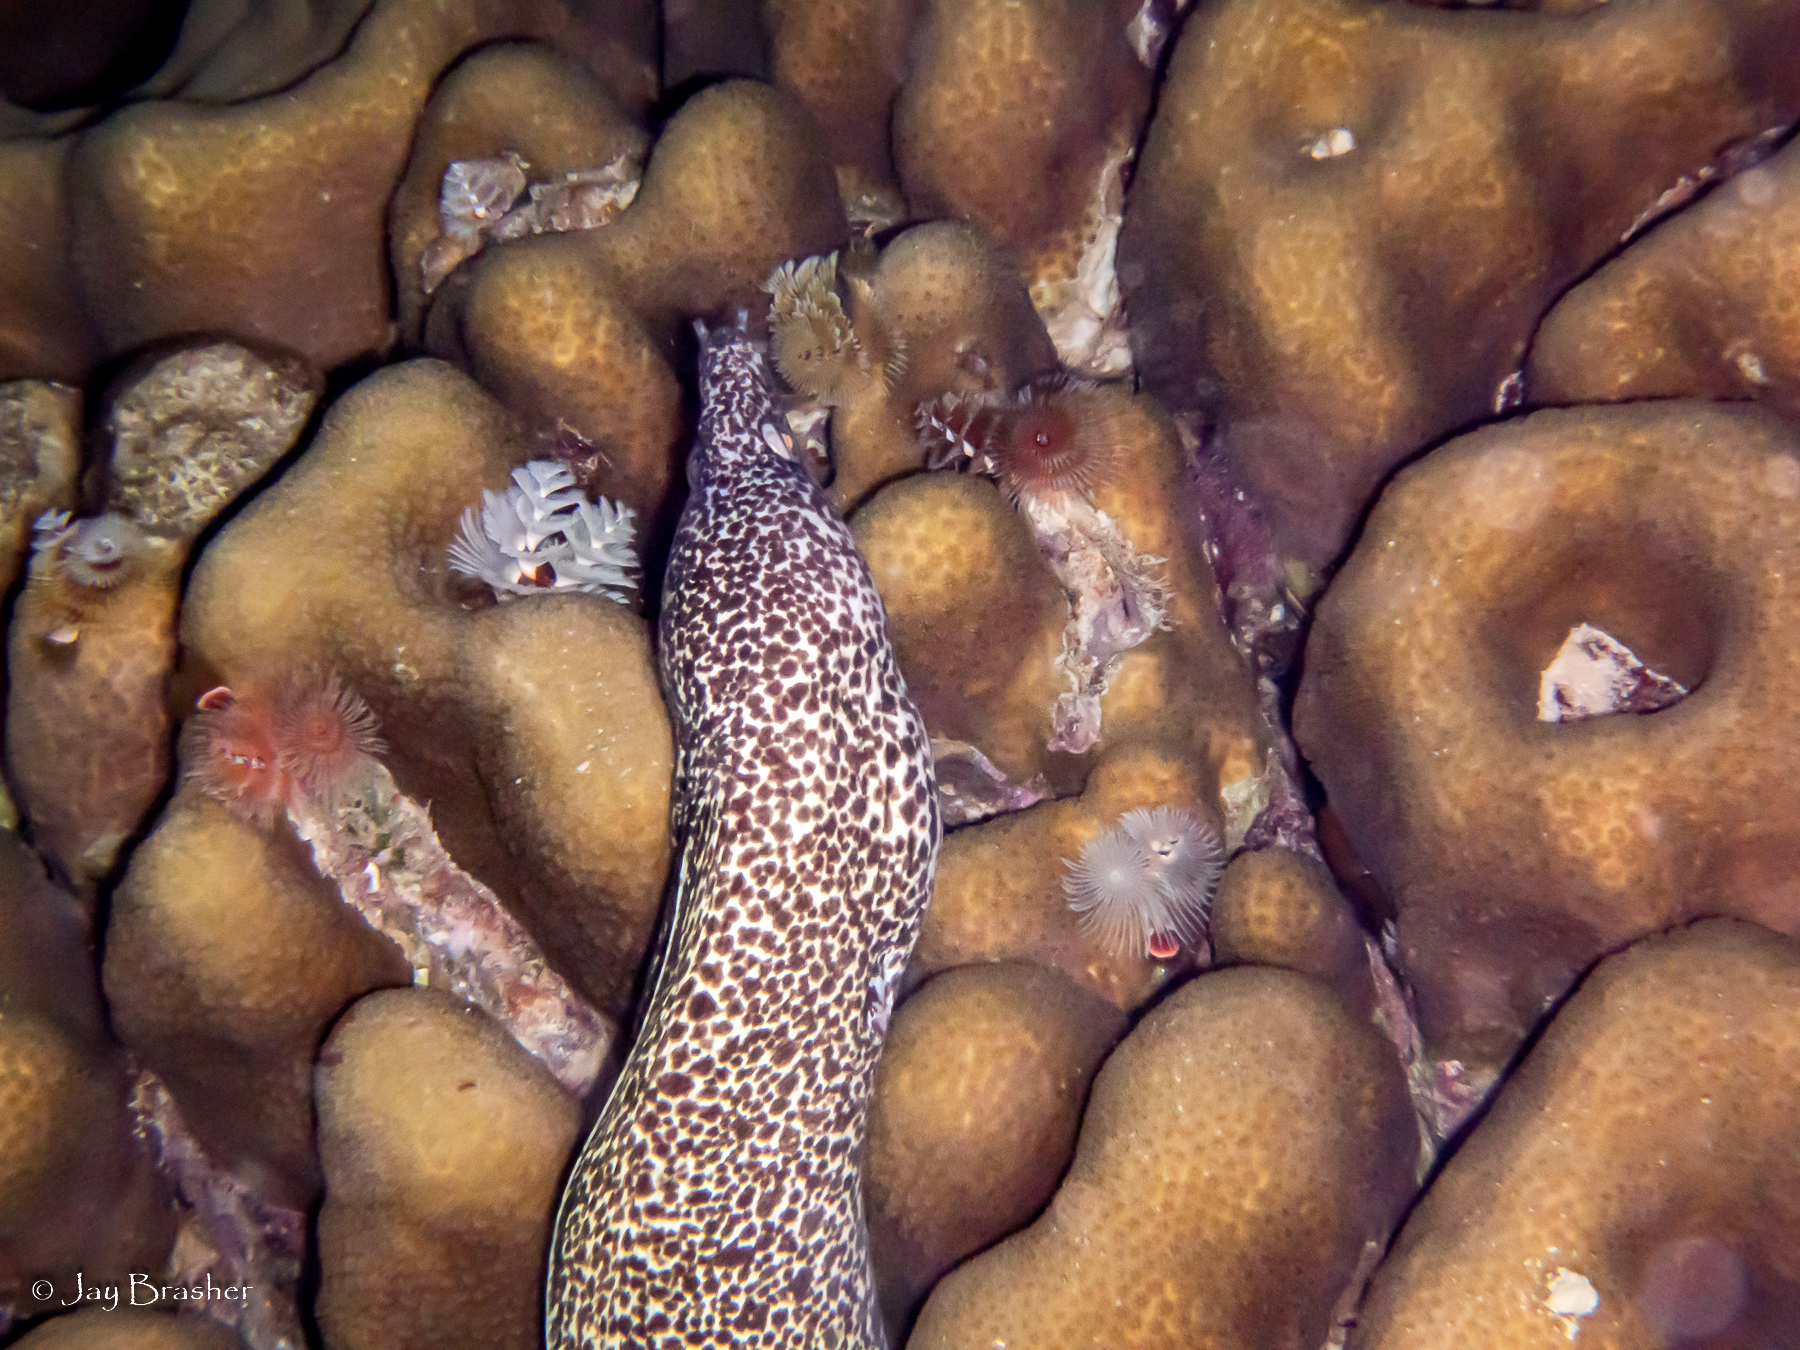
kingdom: Animalia
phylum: Chordata
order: Anguilliformes
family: Muraenidae
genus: Gymnothorax
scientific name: Gymnothorax moringa
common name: Spotted moray
